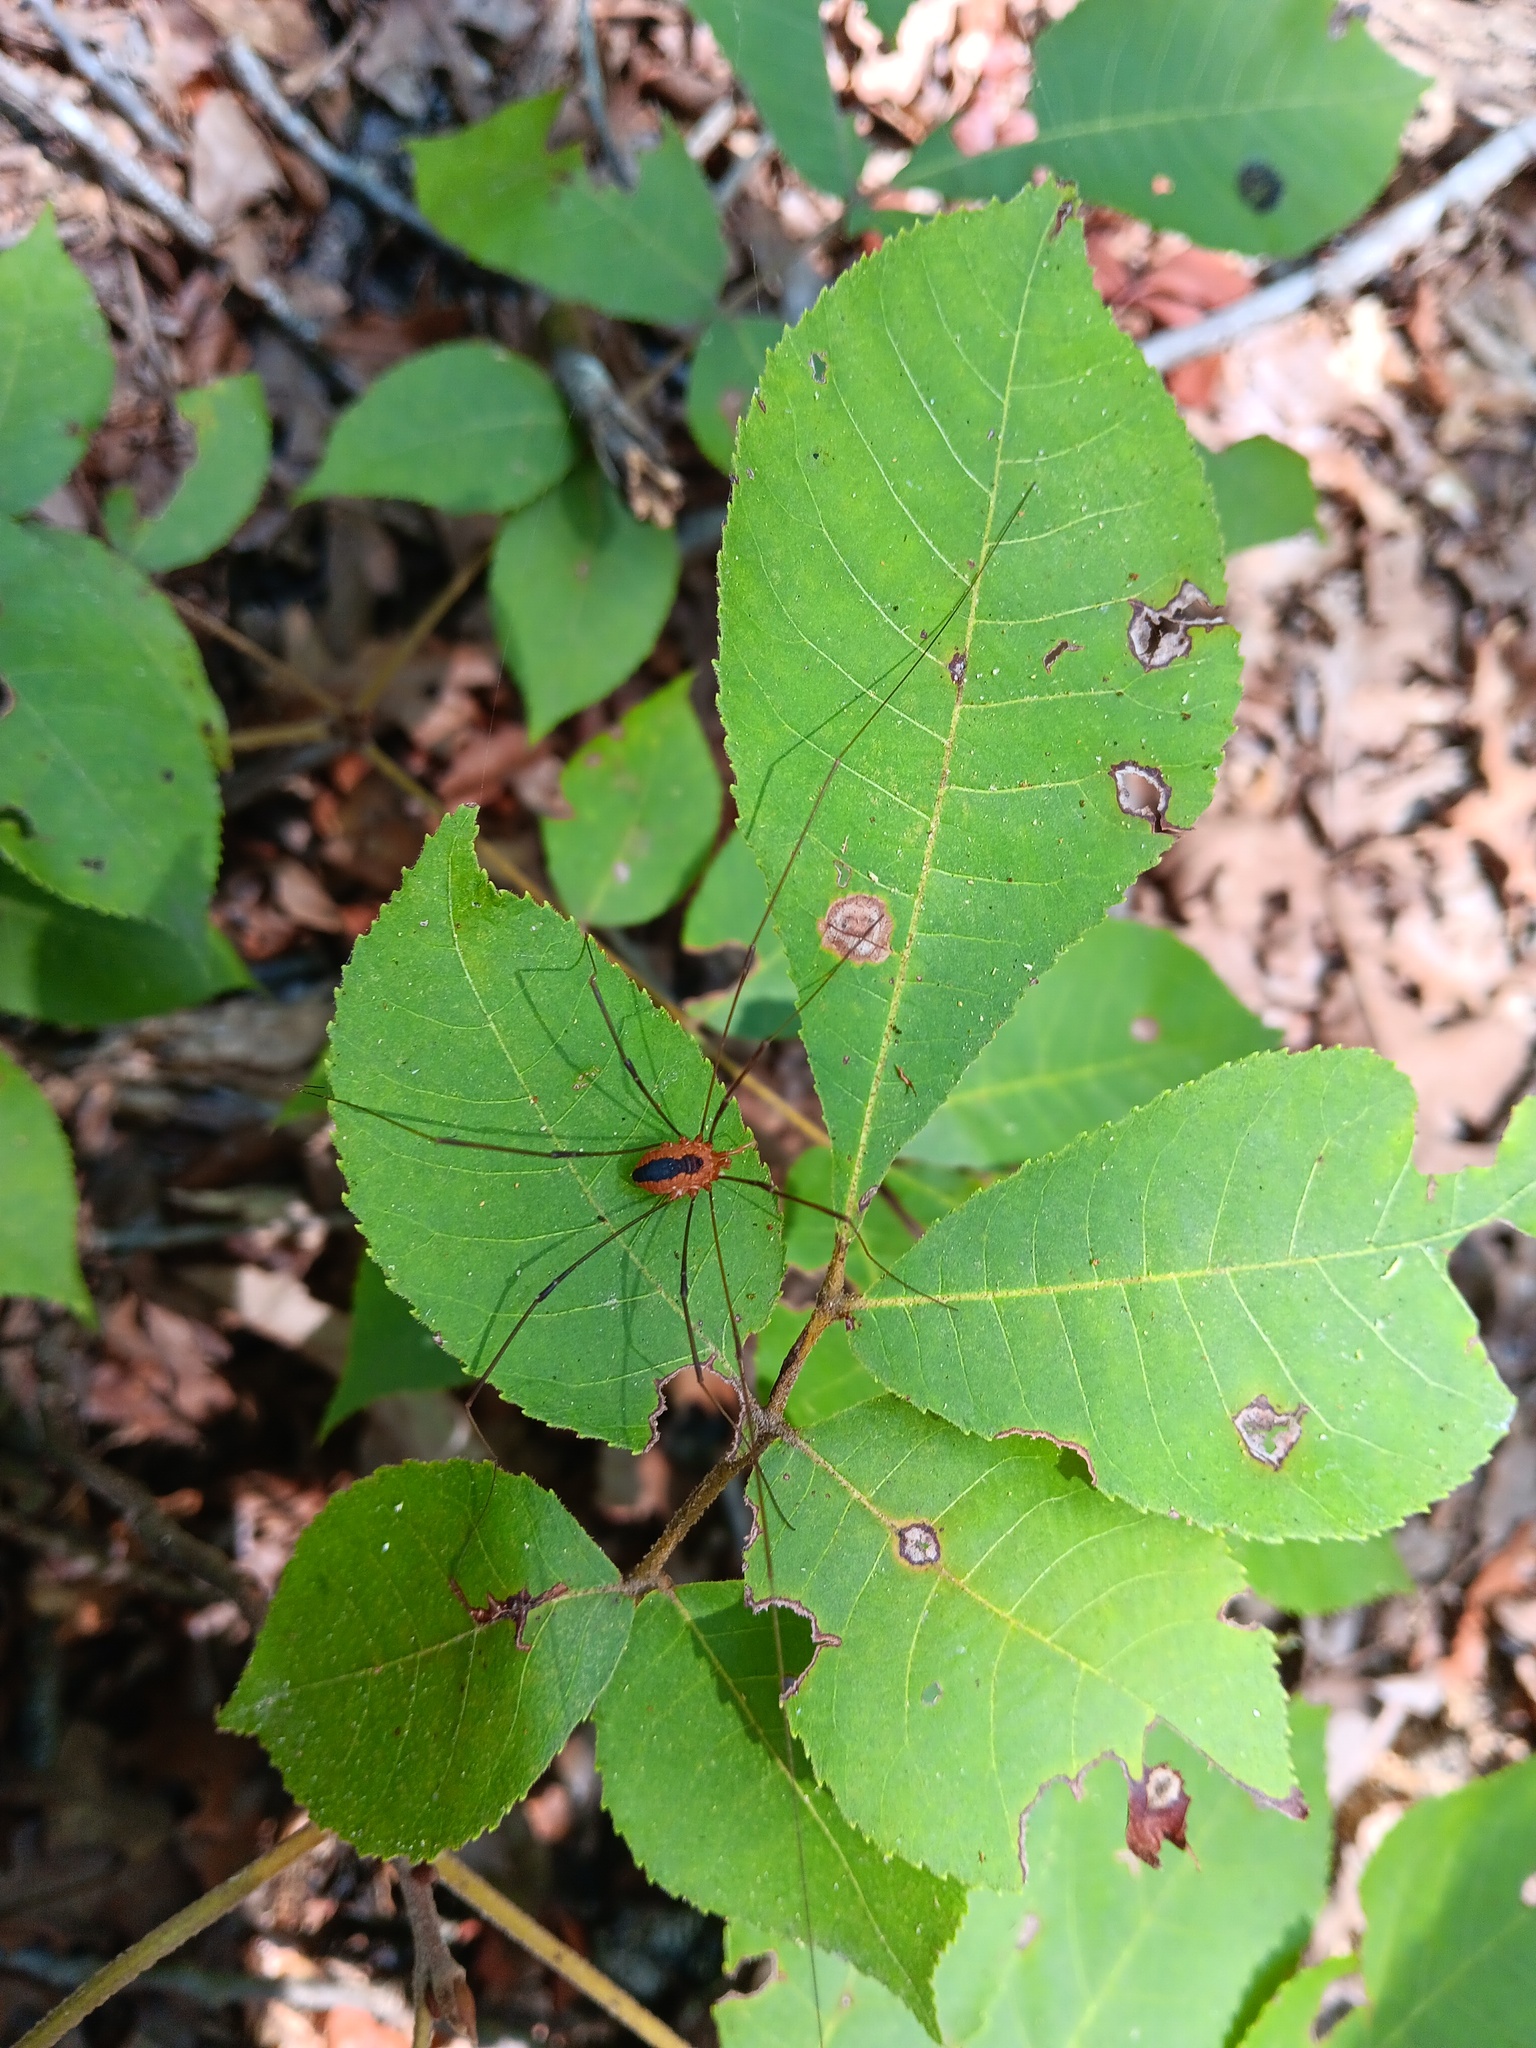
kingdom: Animalia
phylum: Arthropoda
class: Arachnida
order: Opiliones
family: Sclerosomatidae
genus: Leiobunum
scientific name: Leiobunum vittatum
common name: Eastern harvestman
